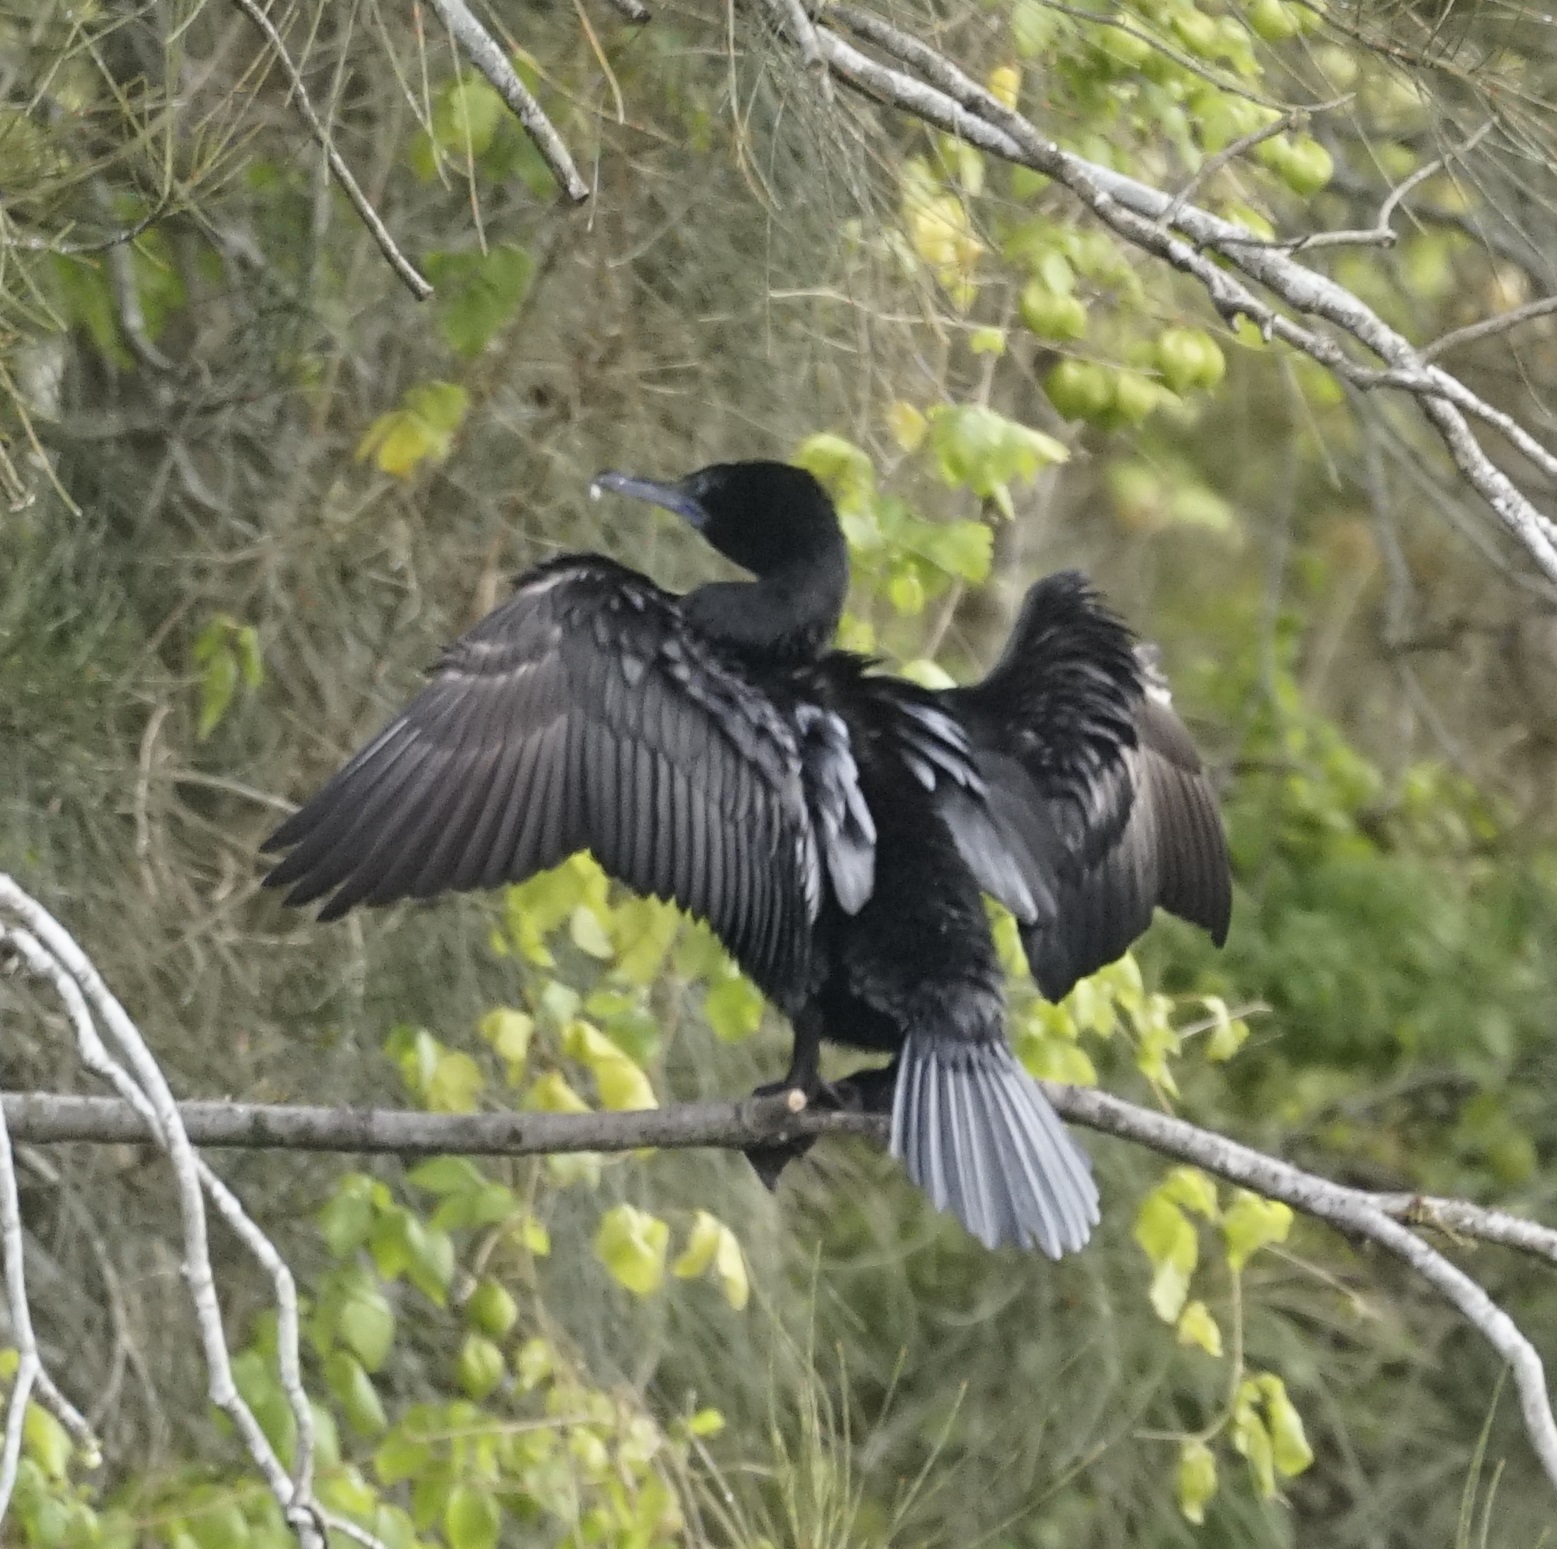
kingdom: Animalia
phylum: Chordata
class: Aves
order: Suliformes
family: Phalacrocoracidae
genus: Phalacrocorax
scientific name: Phalacrocorax sulcirostris
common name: Little black cormorant
